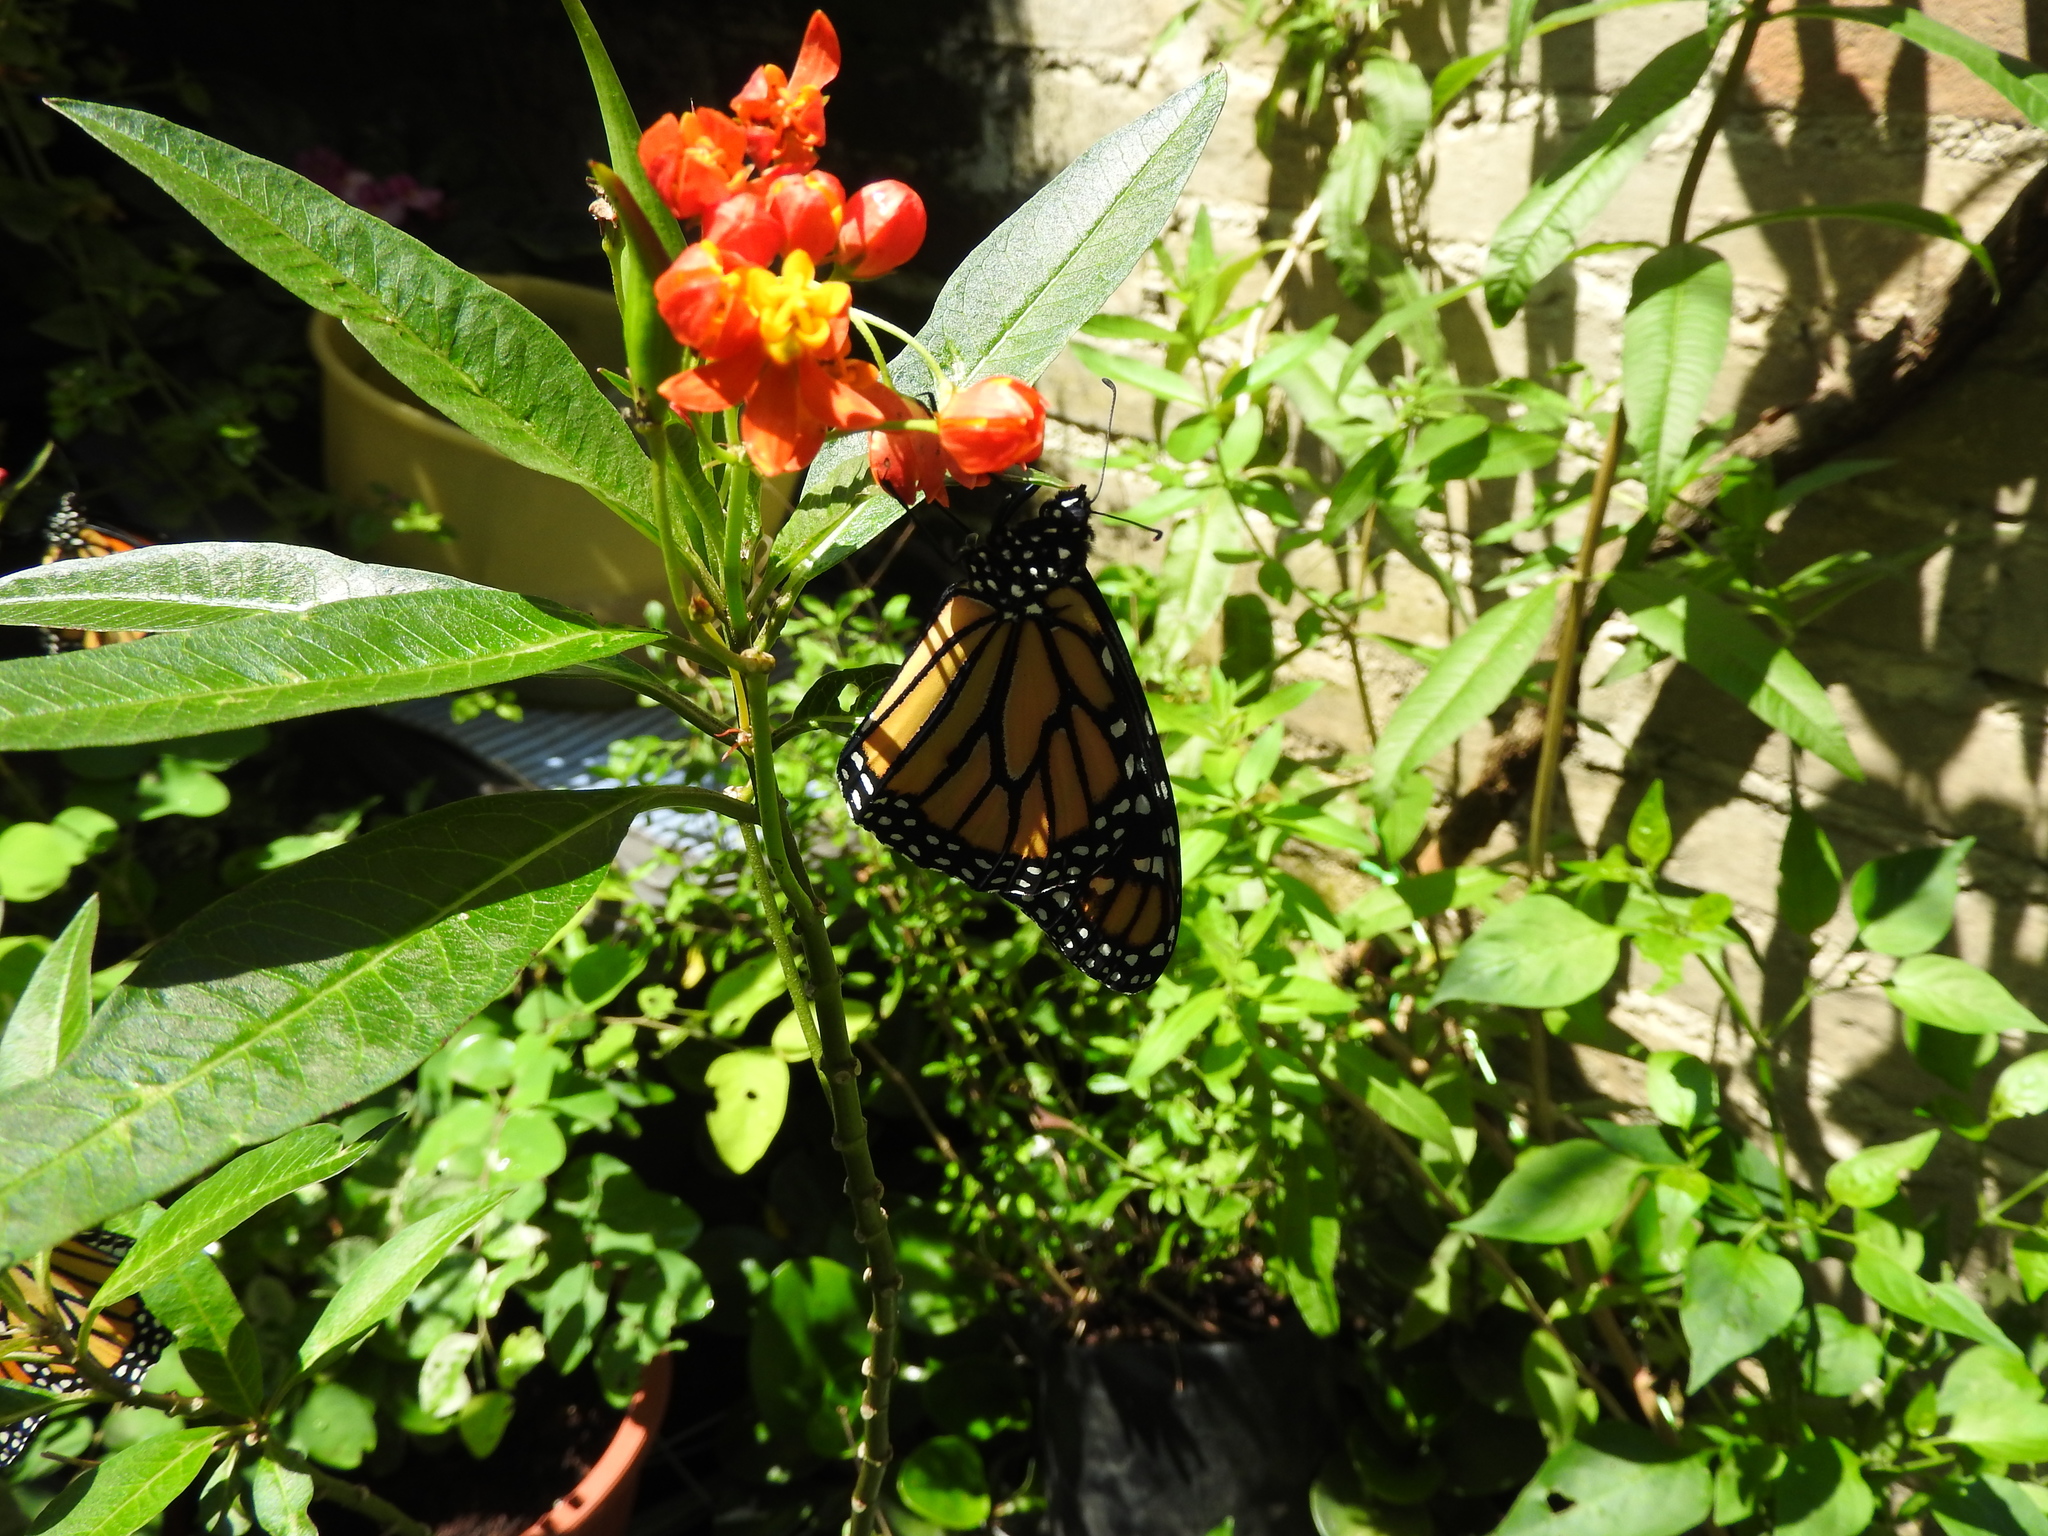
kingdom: Animalia
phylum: Arthropoda
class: Insecta
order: Lepidoptera
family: Nymphalidae
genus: Danaus
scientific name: Danaus plexippus
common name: Monarch
